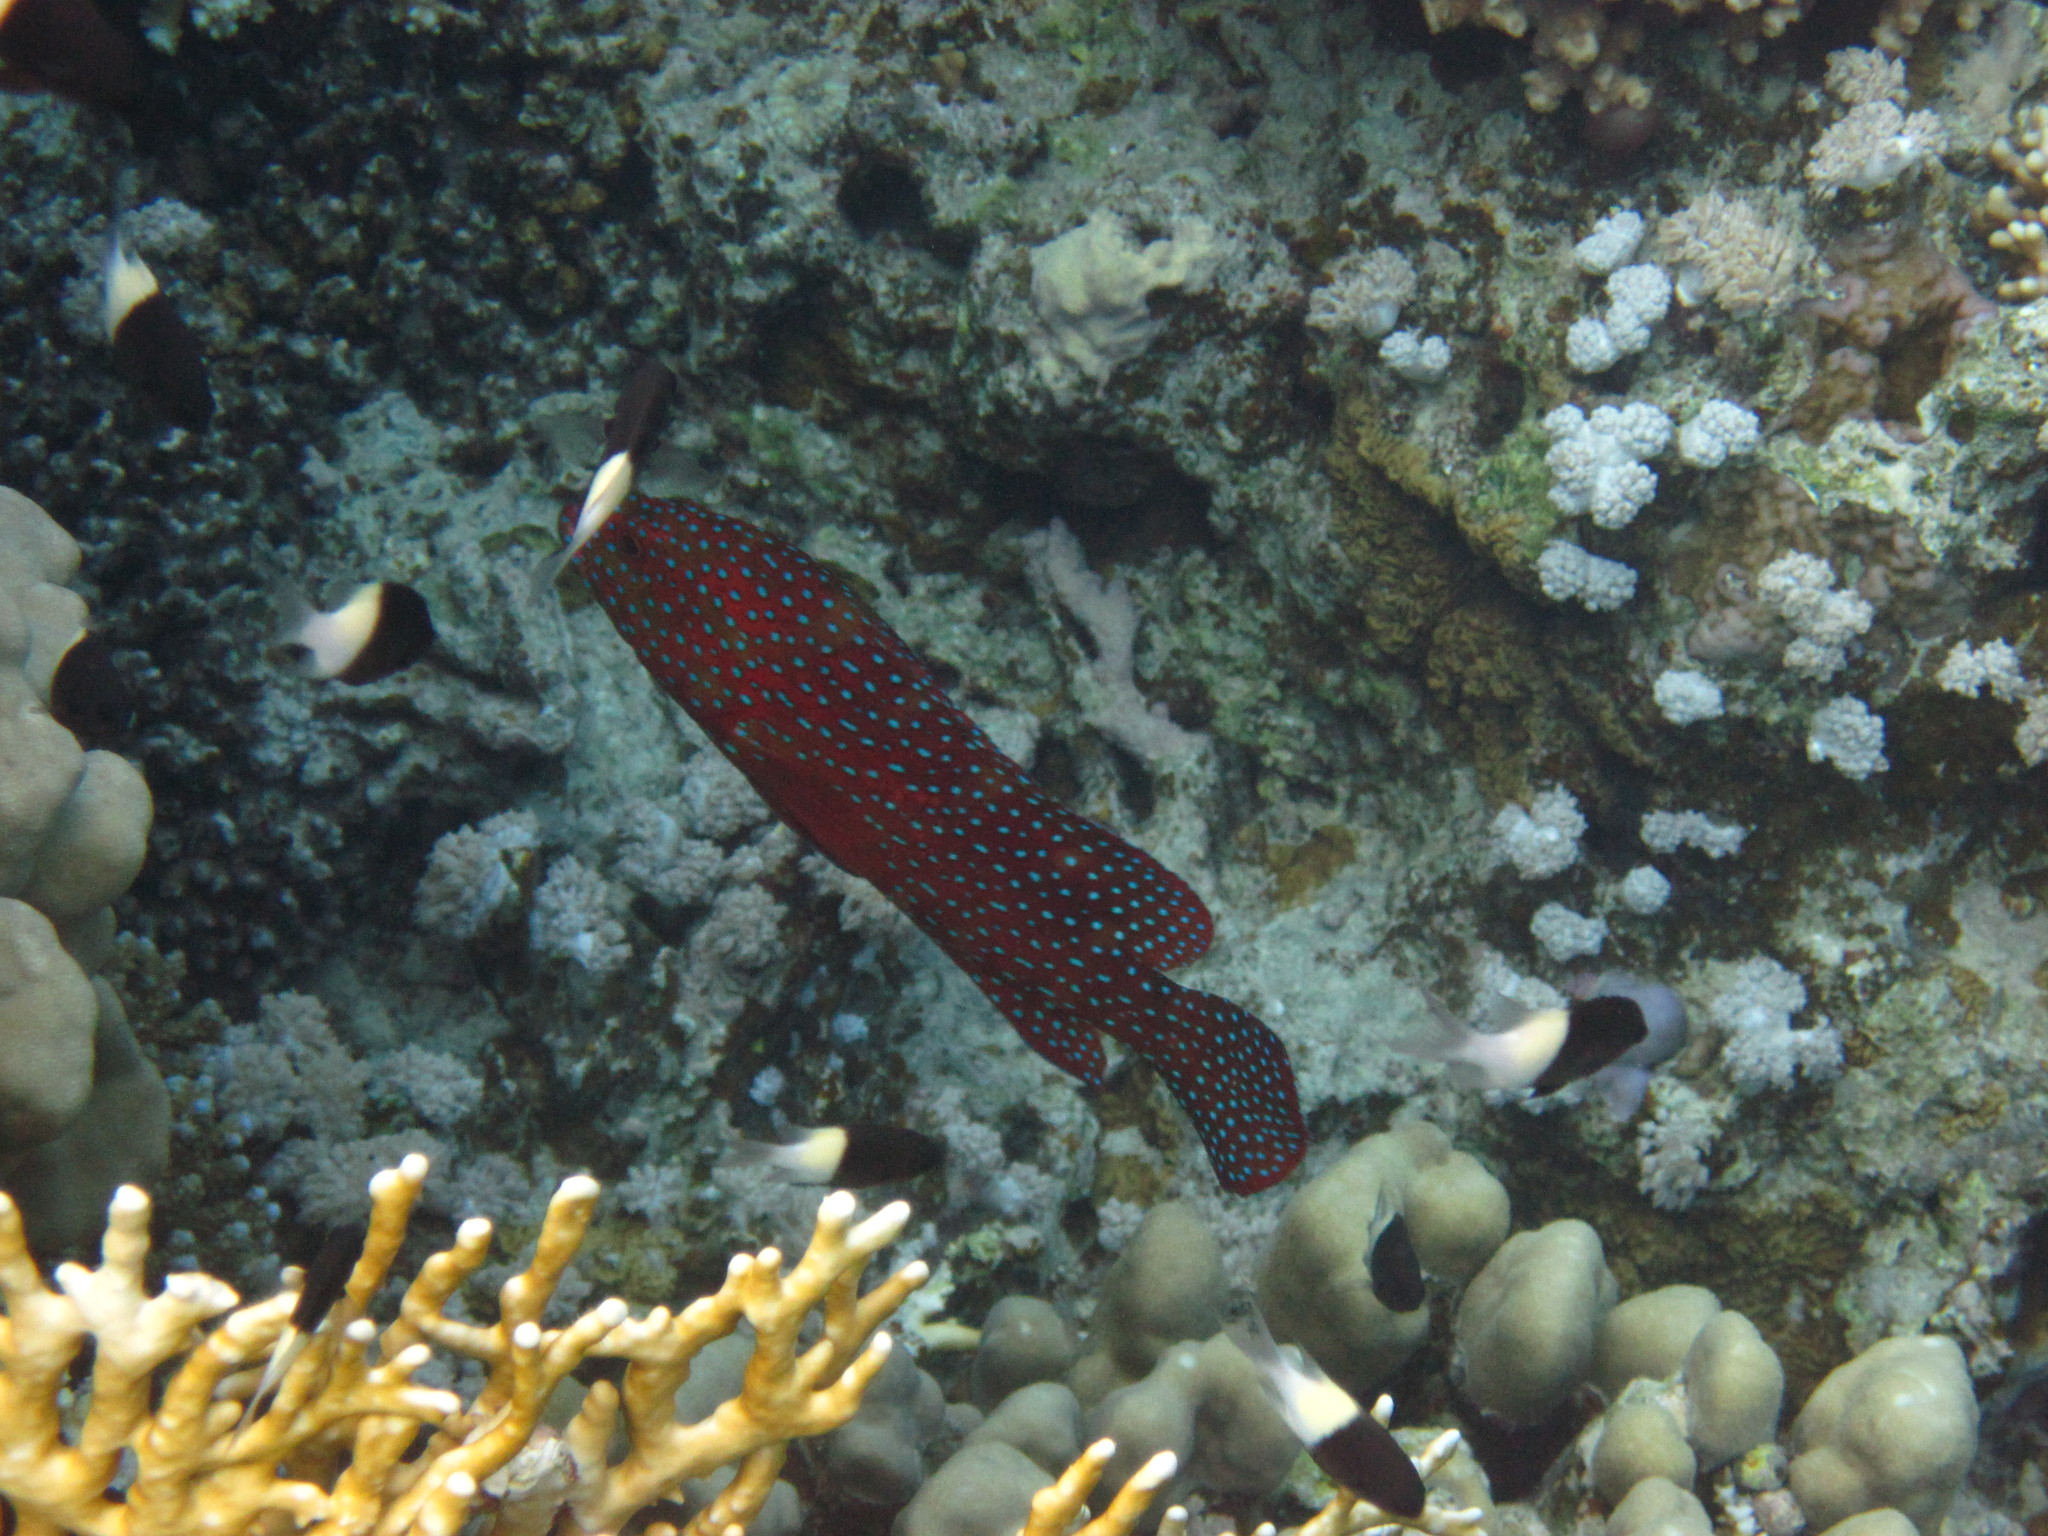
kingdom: Animalia
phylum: Chordata
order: Perciformes
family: Serranidae
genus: Cephalopholis
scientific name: Cephalopholis miniata
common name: Coral hind
